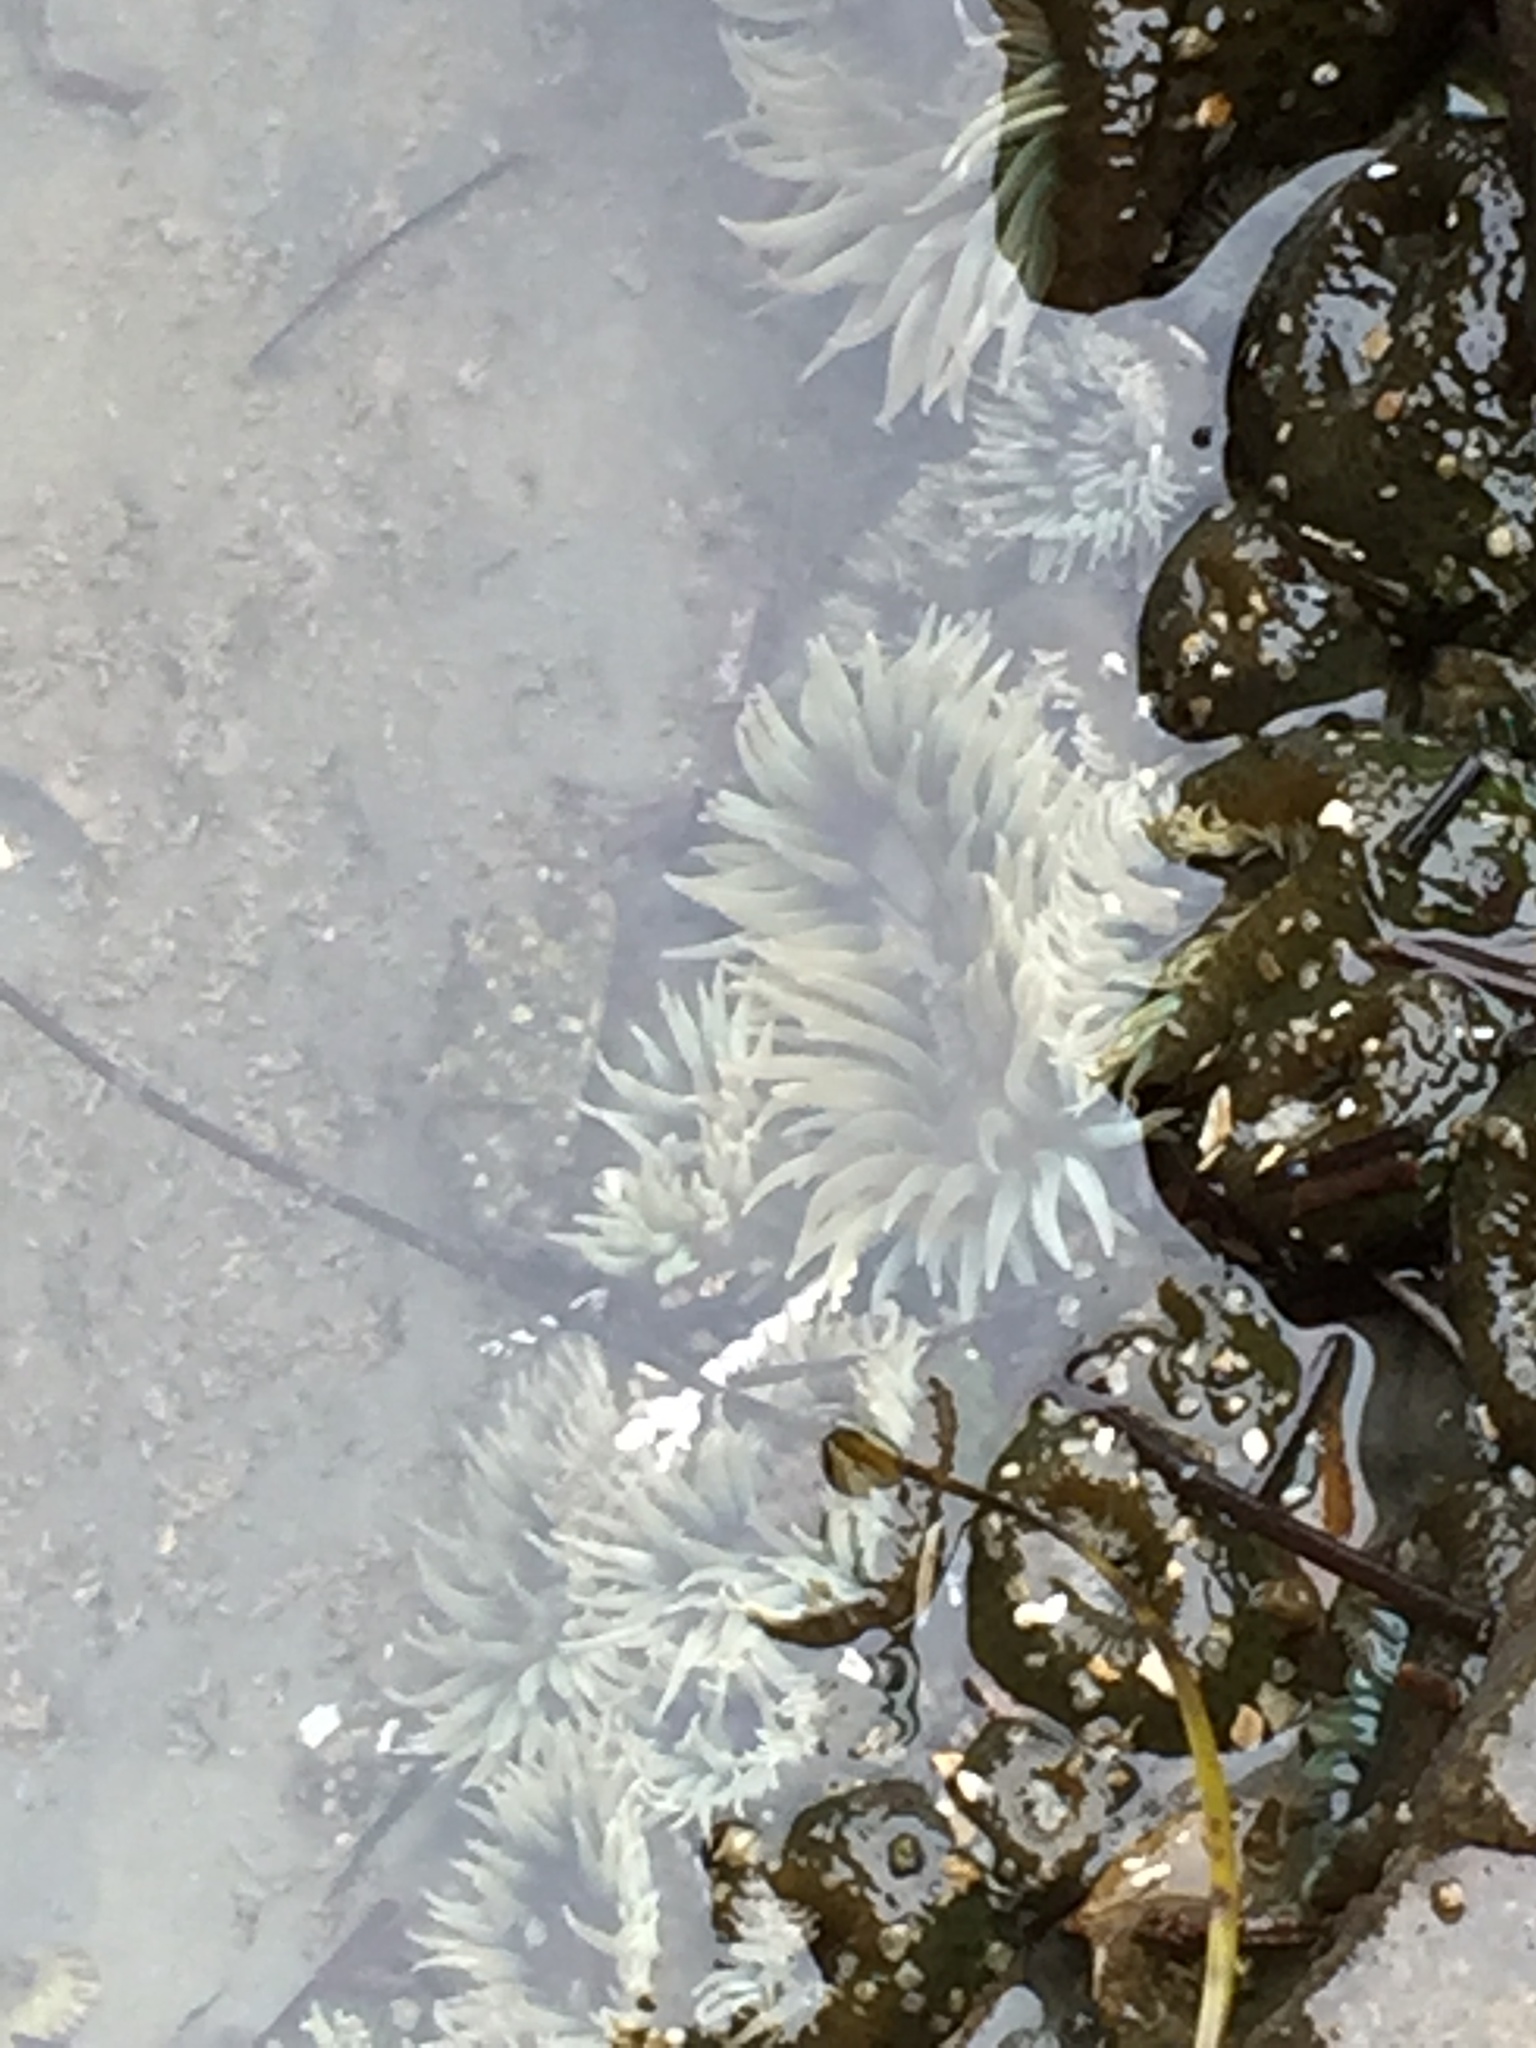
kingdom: Animalia
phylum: Cnidaria
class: Anthozoa
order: Actiniaria
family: Actiniidae
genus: Anthopleura
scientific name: Anthopleura elegantissima
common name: Clonal anemone
